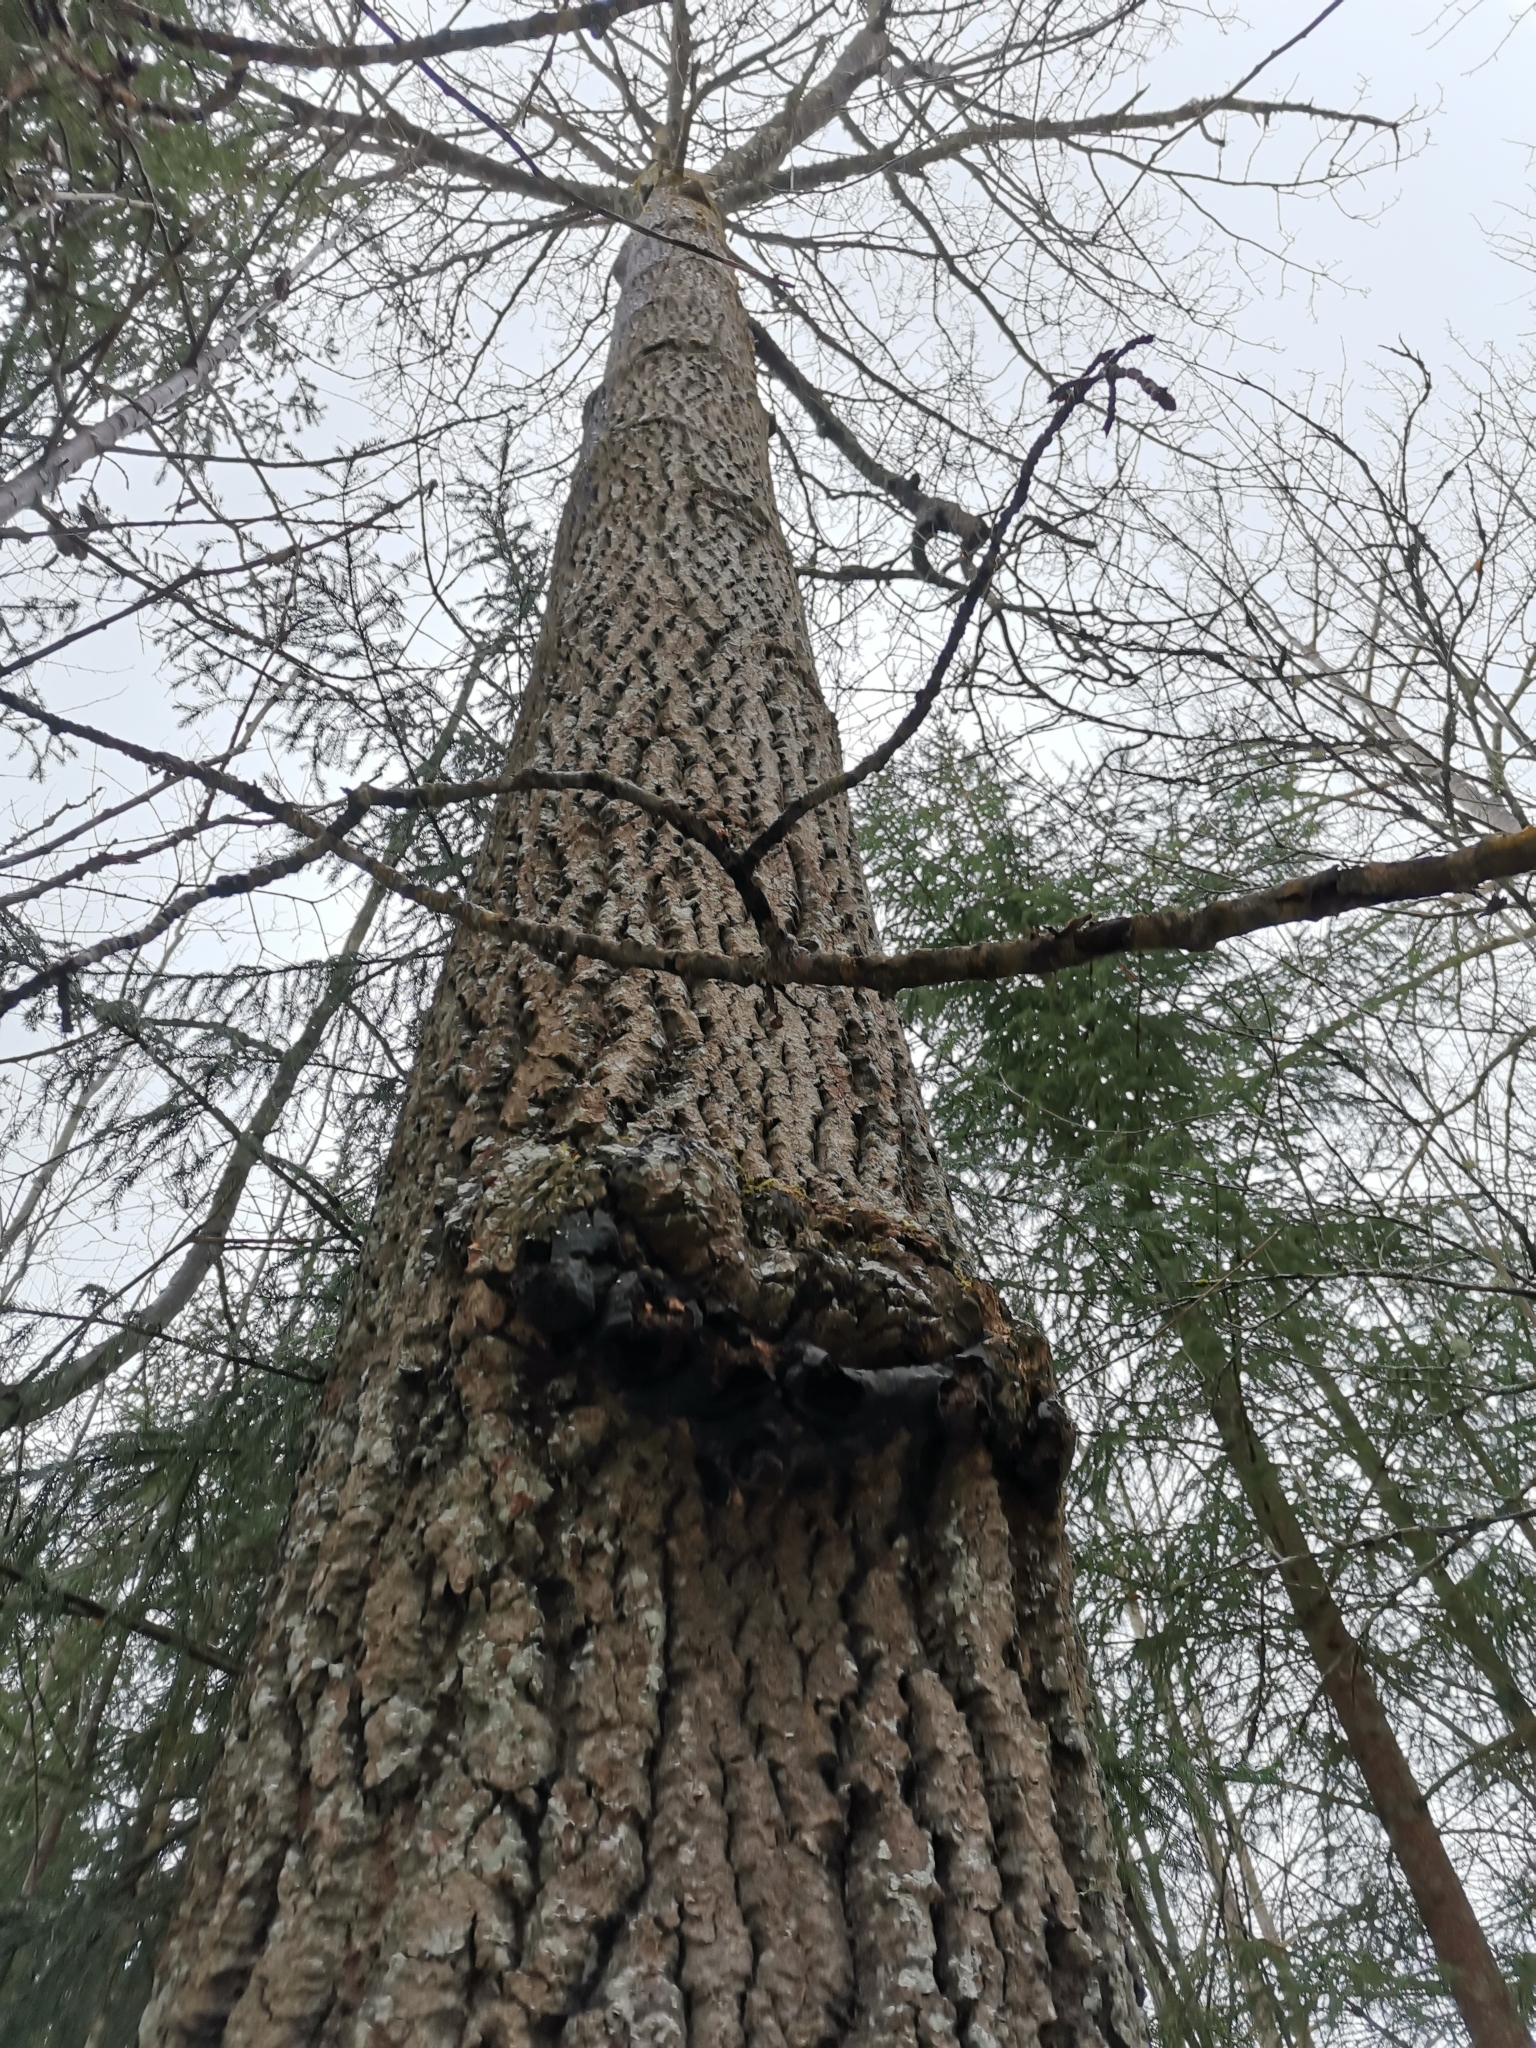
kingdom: Animalia
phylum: Chordata
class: Mammalia
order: Rodentia
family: Sciuridae
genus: Pteromys
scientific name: Pteromys volans
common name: Siberian flying squirrel
